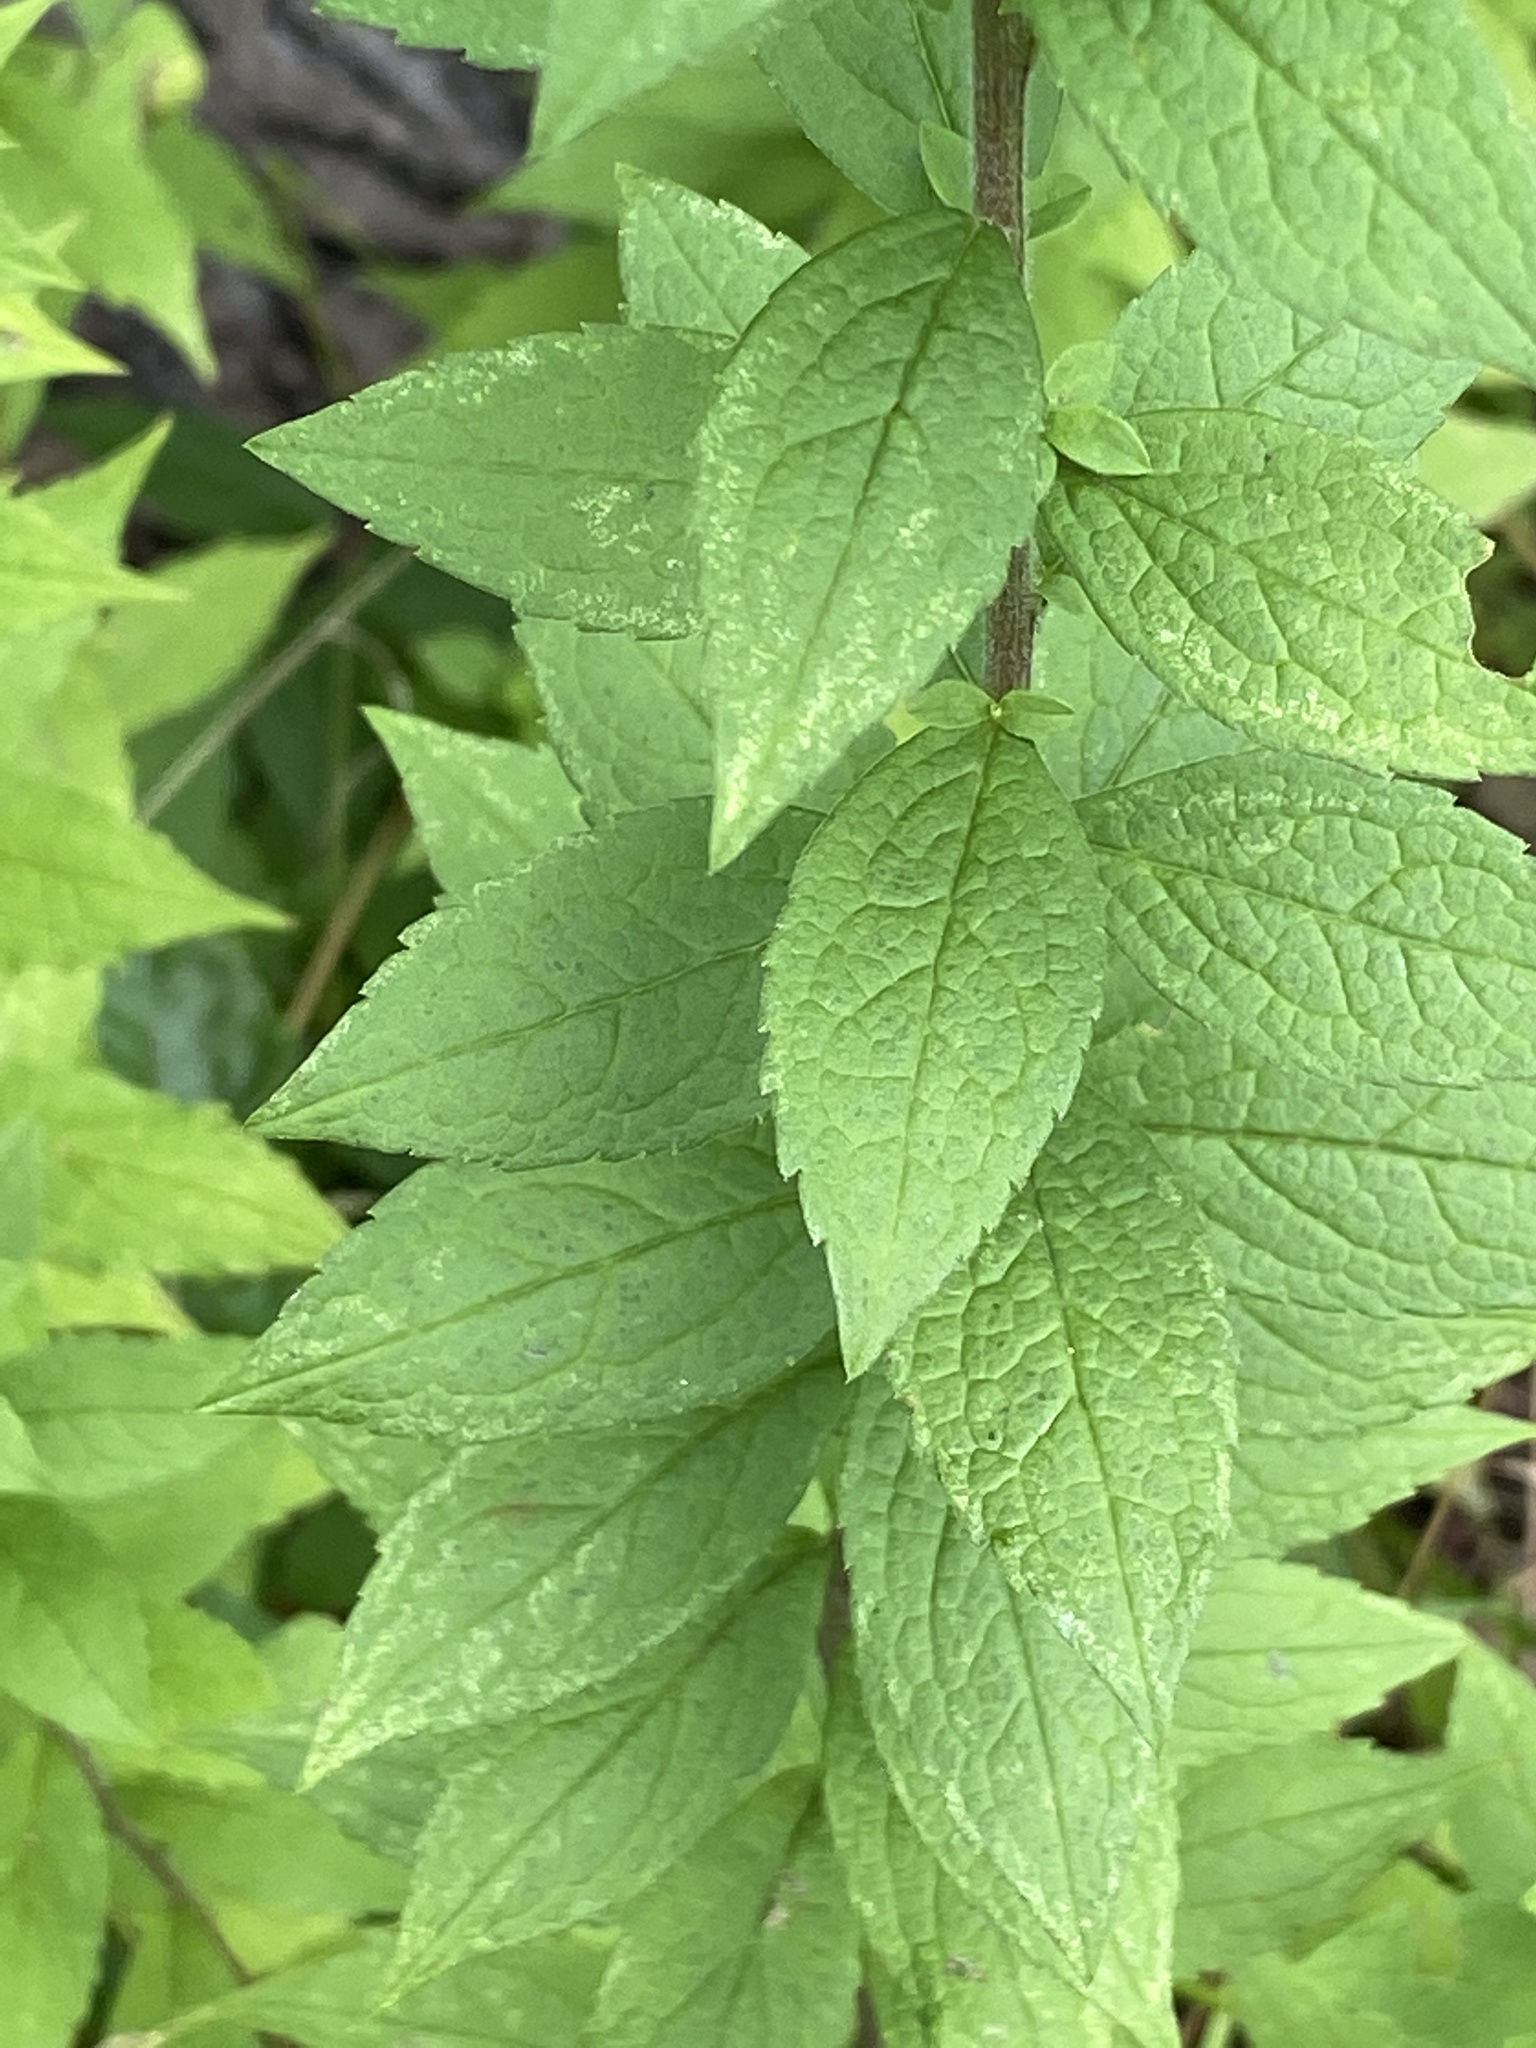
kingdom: Plantae
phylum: Tracheophyta
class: Magnoliopsida
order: Asterales
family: Asteraceae
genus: Solidago
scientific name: Solidago rugosa
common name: Rough-stemmed goldenrod
